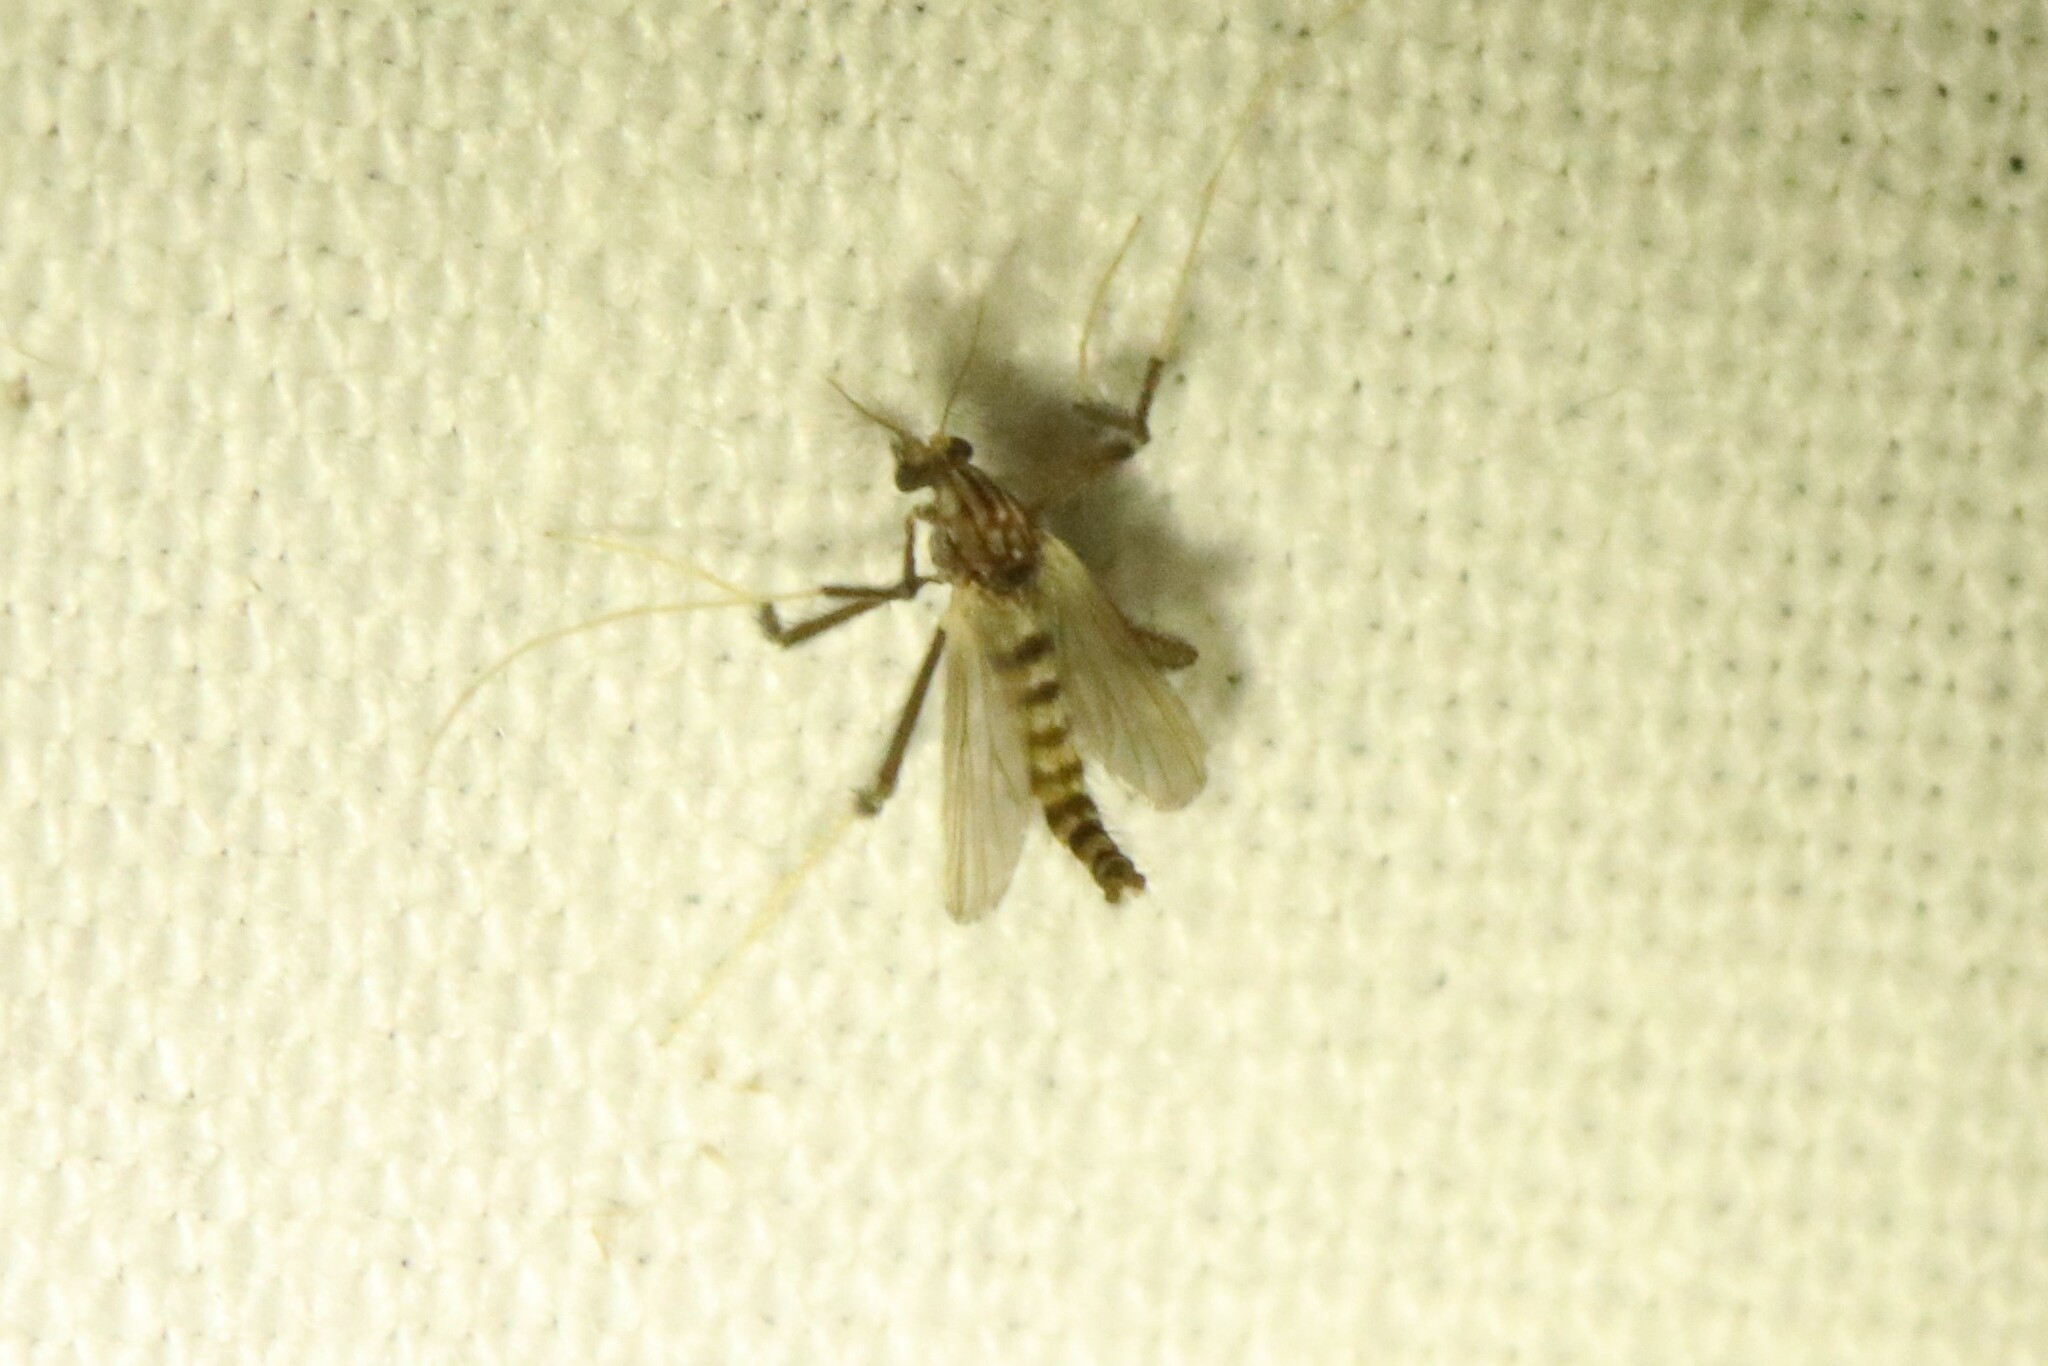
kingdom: Animalia
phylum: Arthropoda
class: Insecta
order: Diptera
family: Chironomidae
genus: Polypedilum
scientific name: Polypedilum ontario
